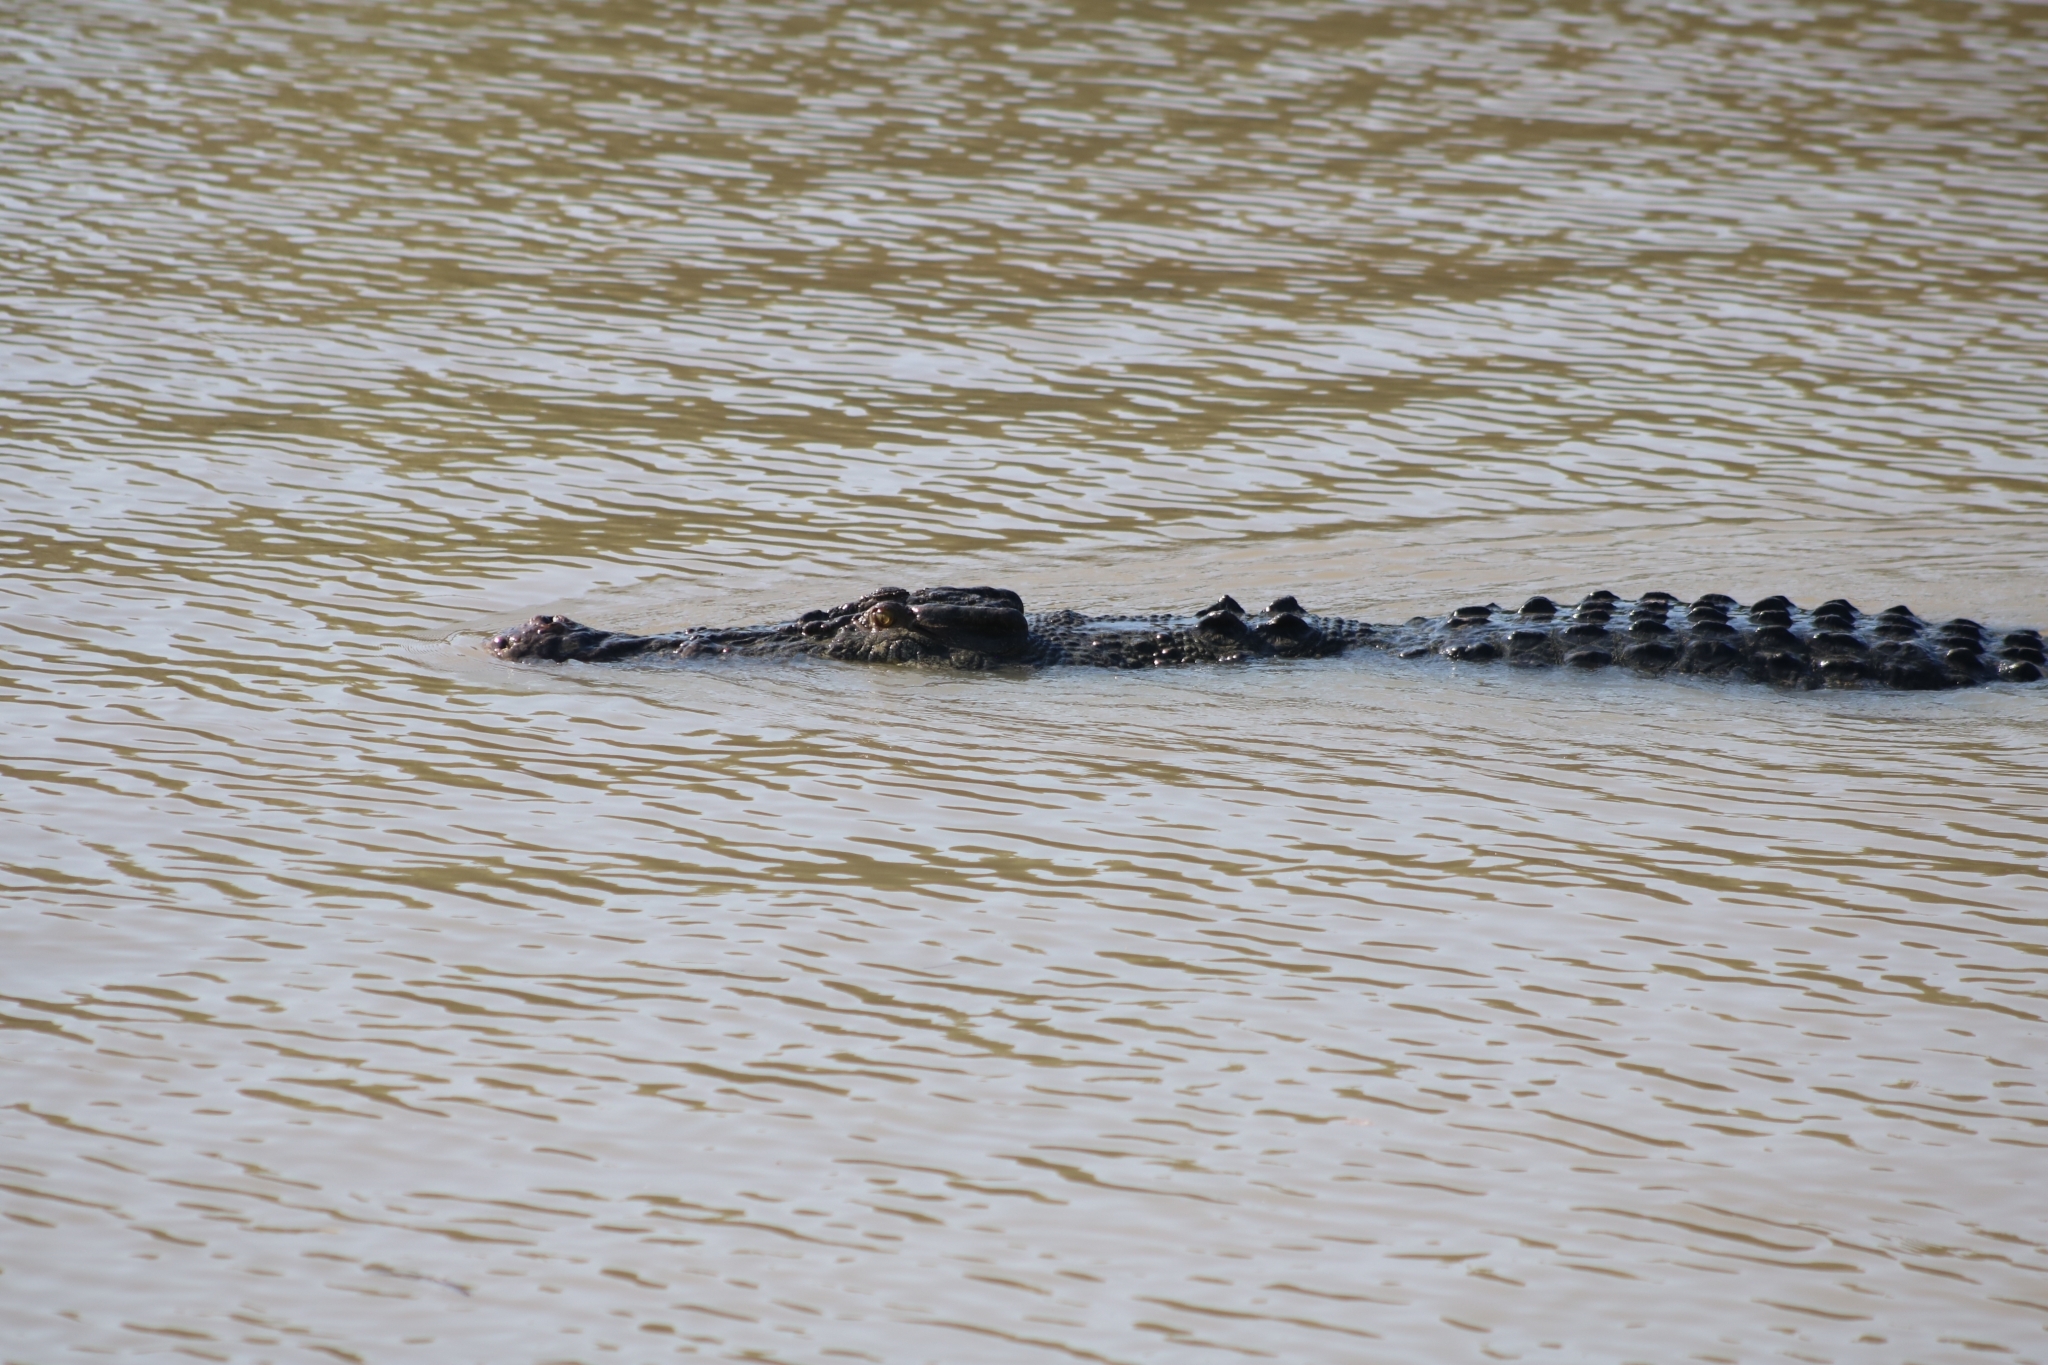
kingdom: Animalia
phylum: Chordata
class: Crocodylia
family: Crocodylidae
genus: Crocodylus
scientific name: Crocodylus porosus
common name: Saltwater crocodile
